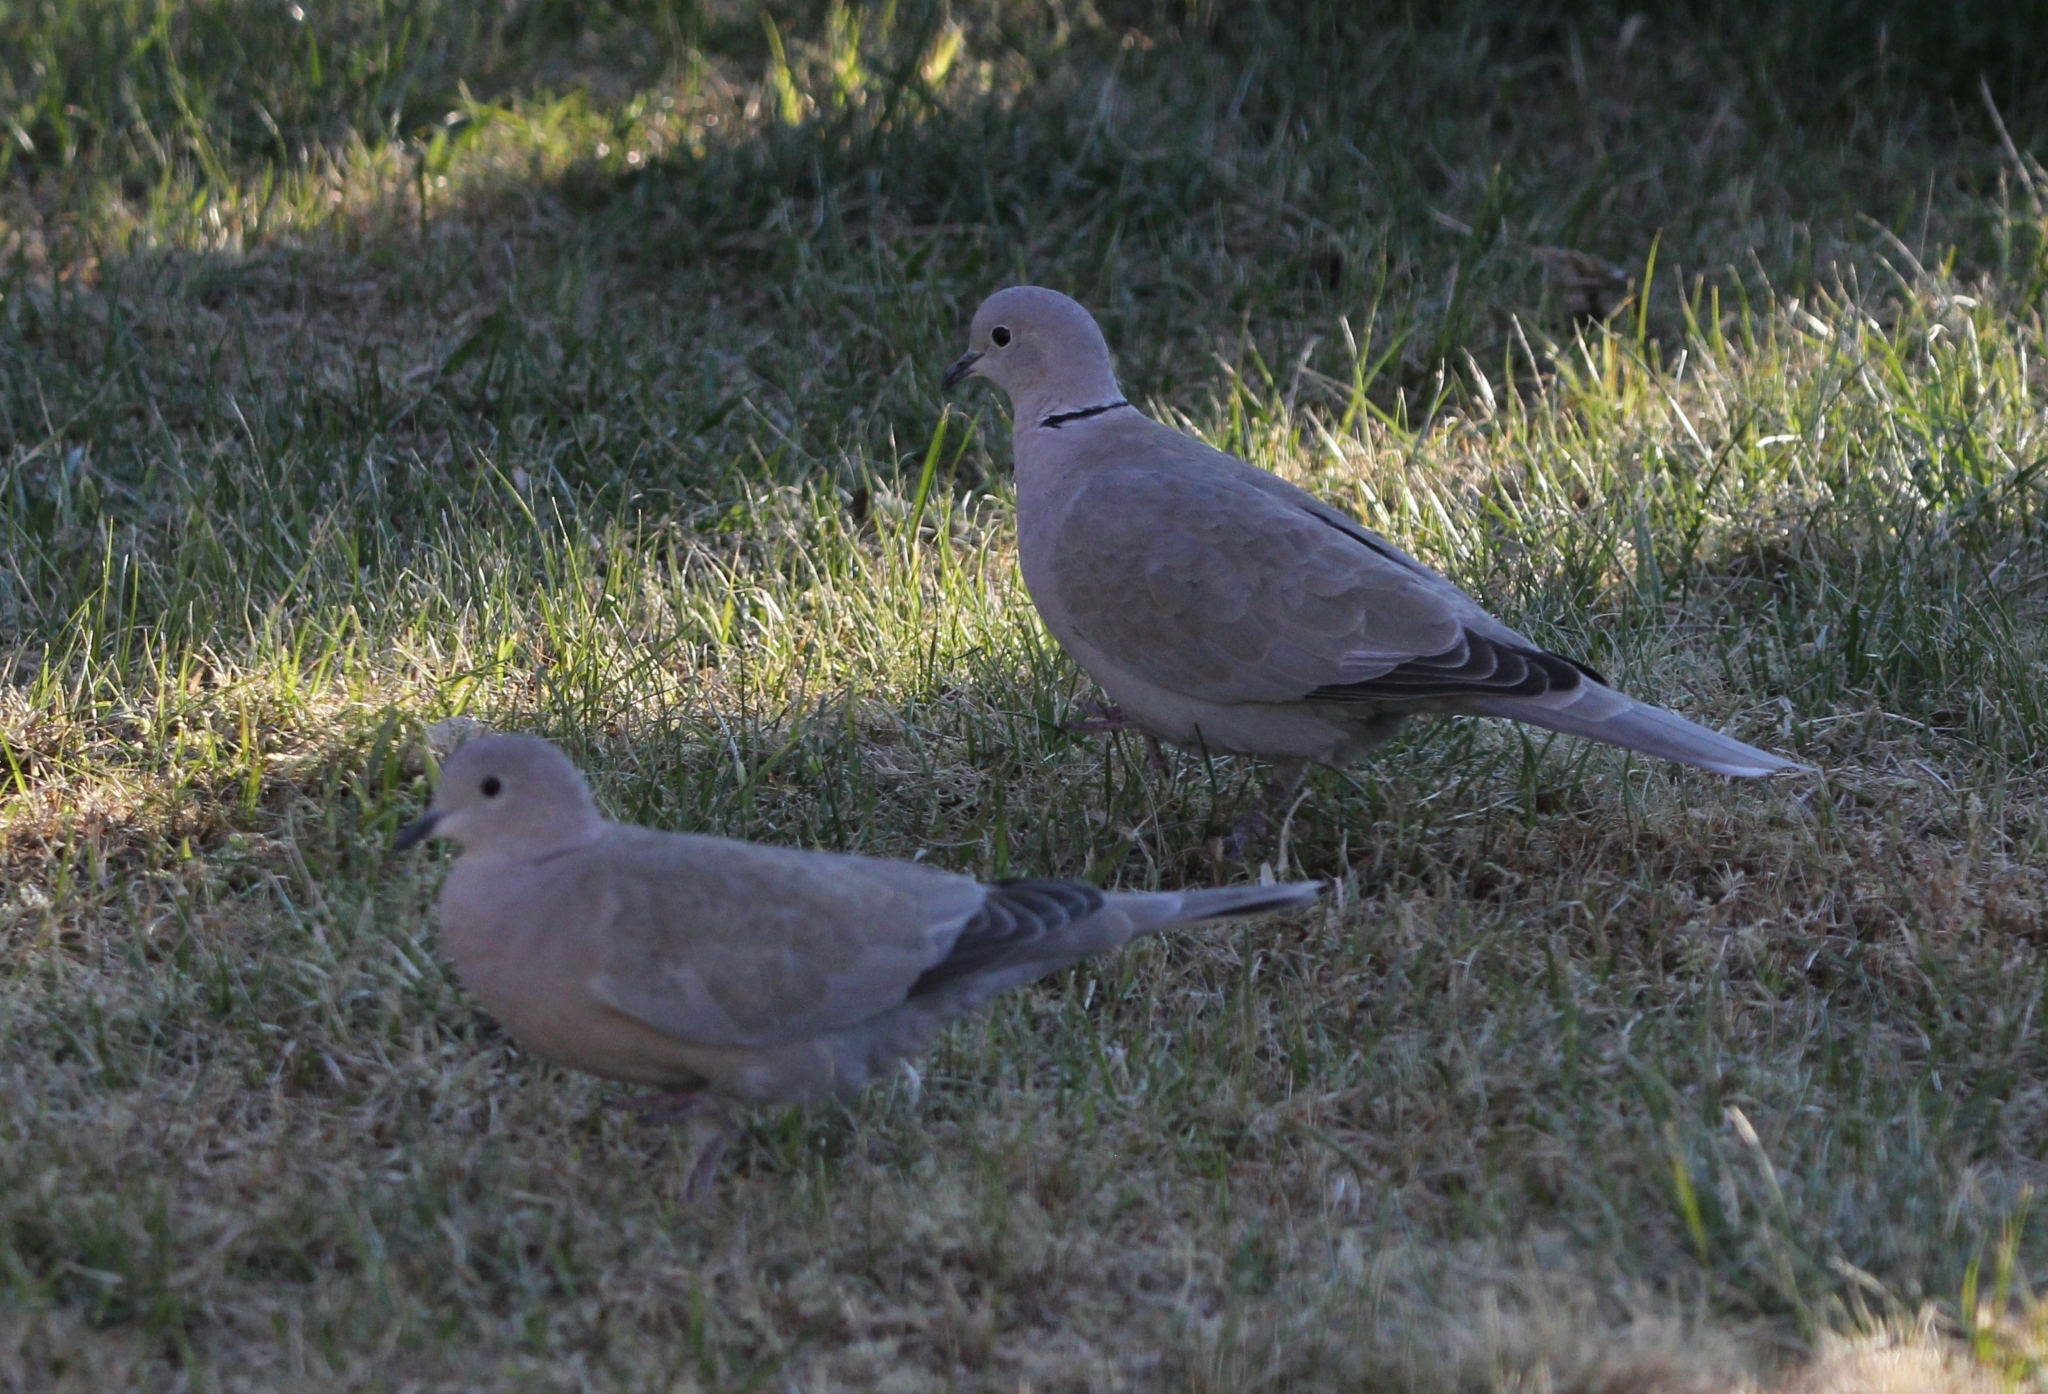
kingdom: Animalia
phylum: Chordata
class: Aves
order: Columbiformes
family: Columbidae
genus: Streptopelia
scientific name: Streptopelia decaocto
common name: Eurasian collared dove
